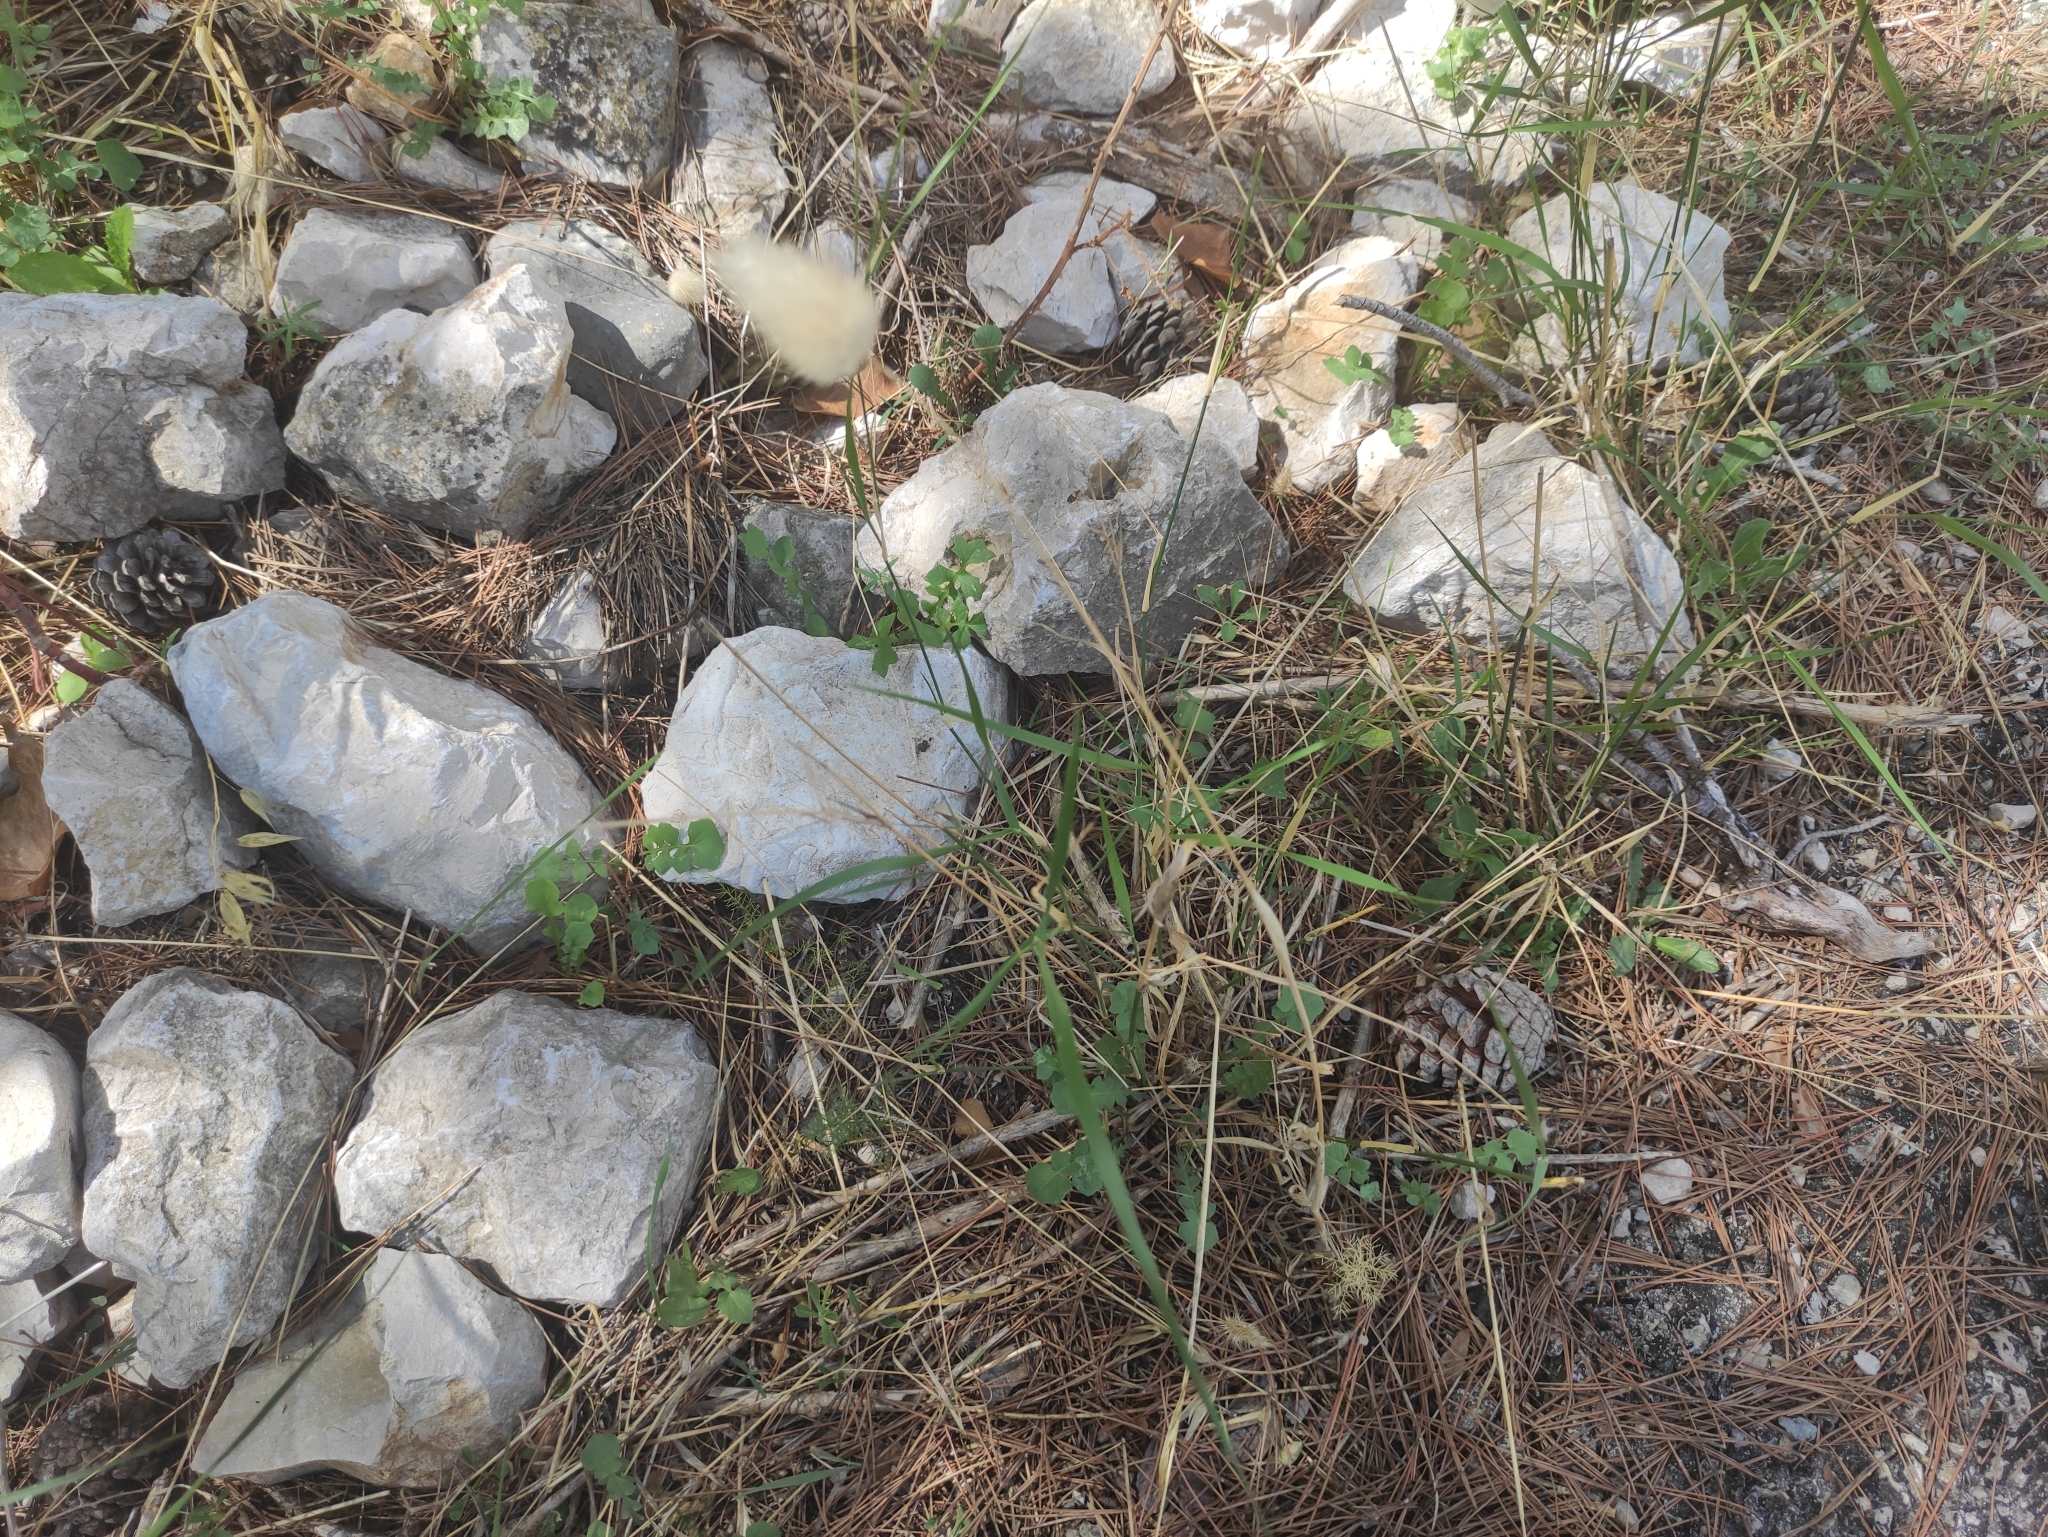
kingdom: Plantae
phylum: Tracheophyta
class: Liliopsida
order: Poales
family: Poaceae
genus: Lagurus
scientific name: Lagurus ovatus
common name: Hare's-tail
